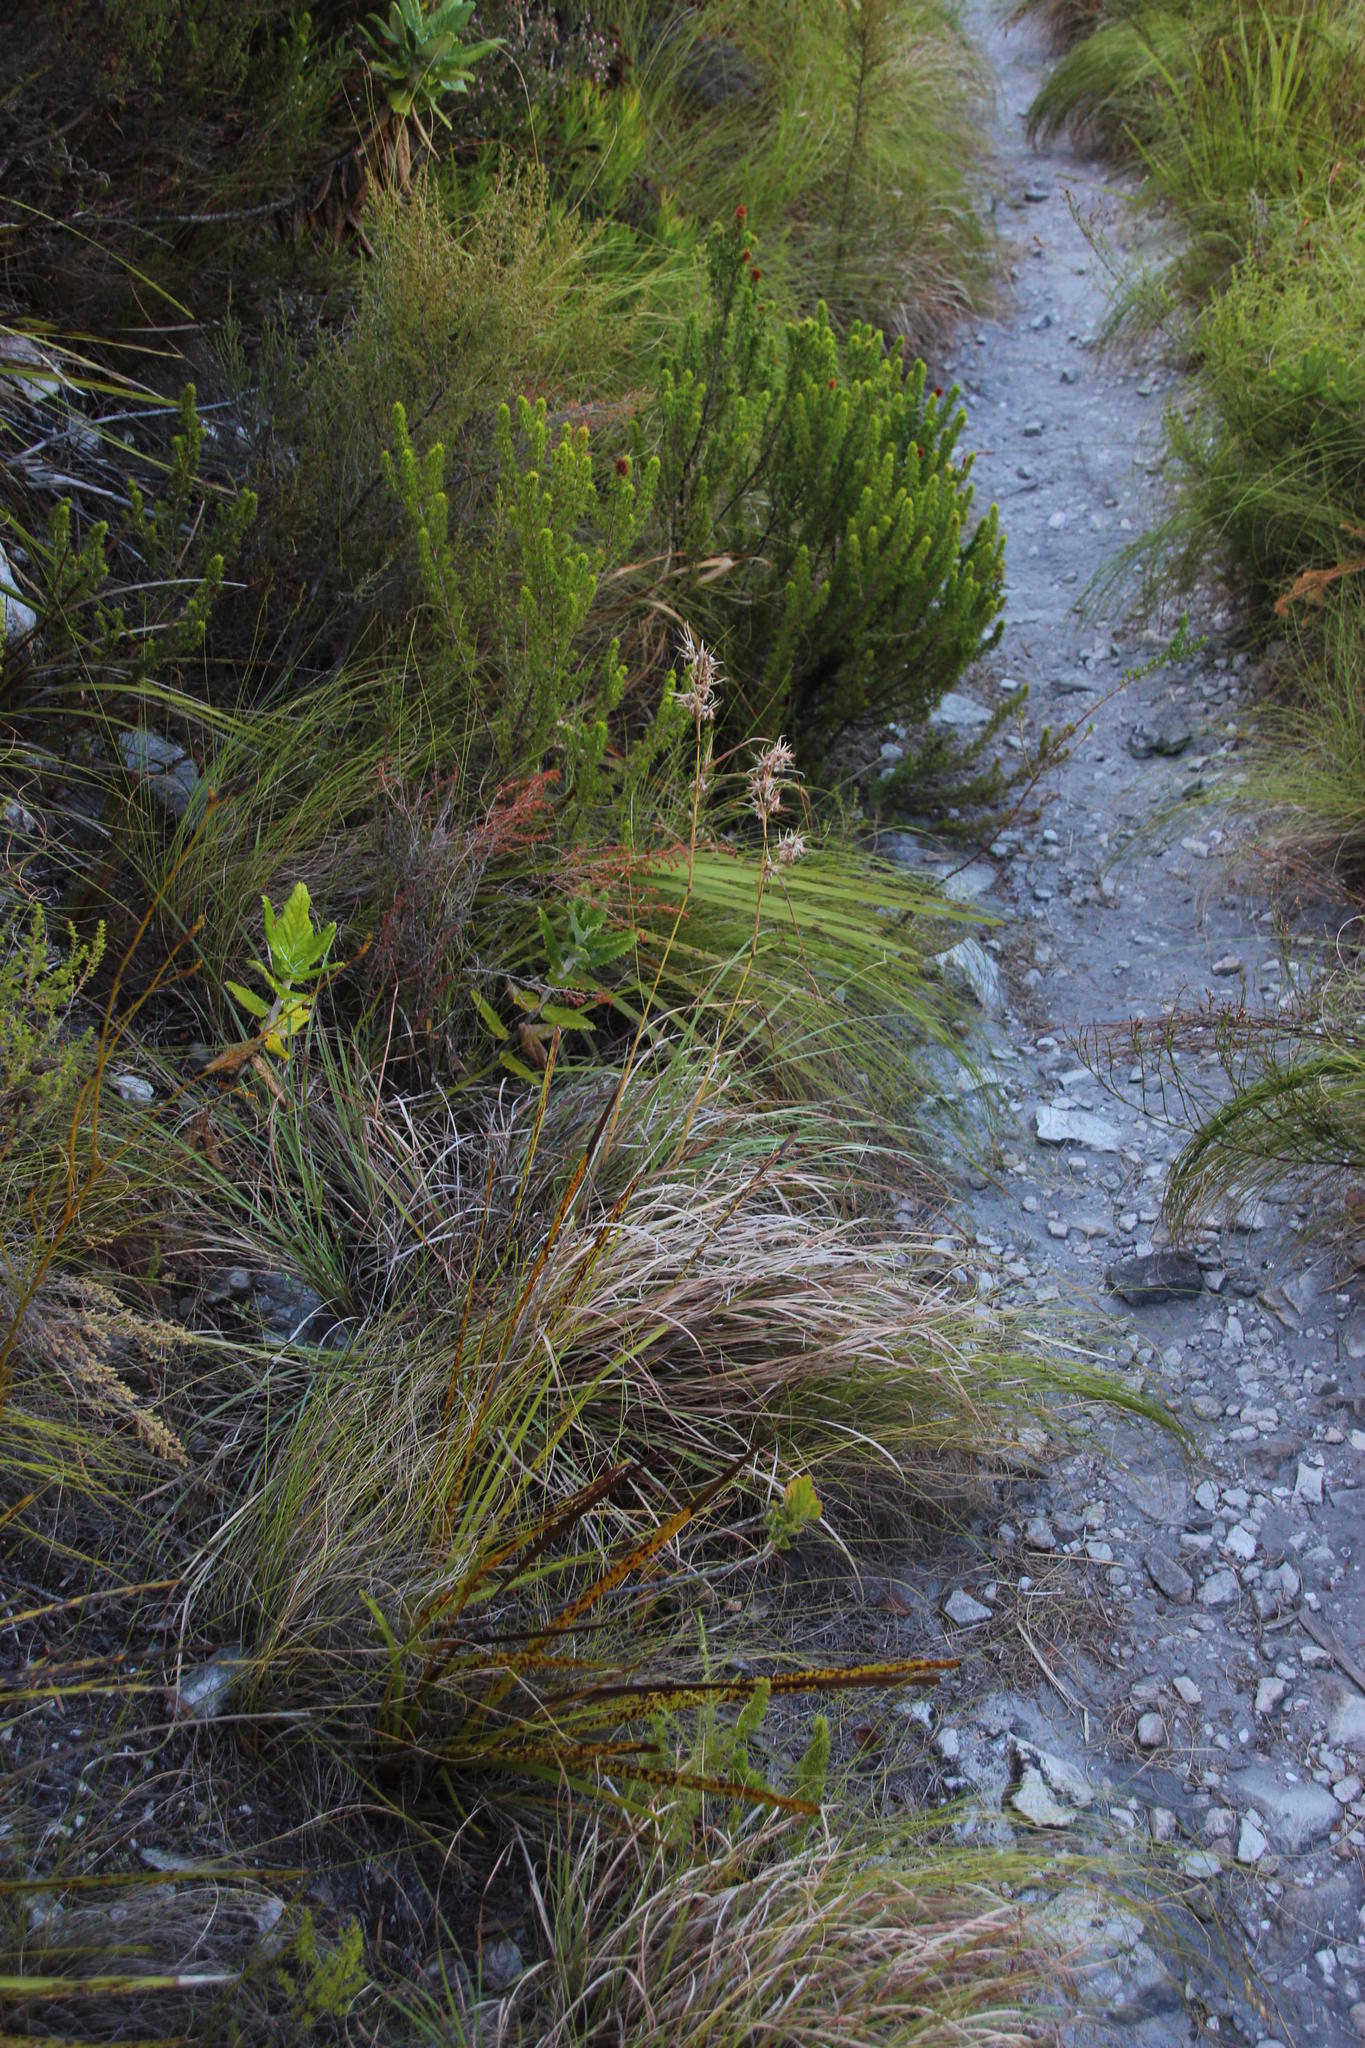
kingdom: Plantae
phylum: Tracheophyta
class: Liliopsida
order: Poales
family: Poaceae
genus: Cymbopogon
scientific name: Cymbopogon pospischilii
